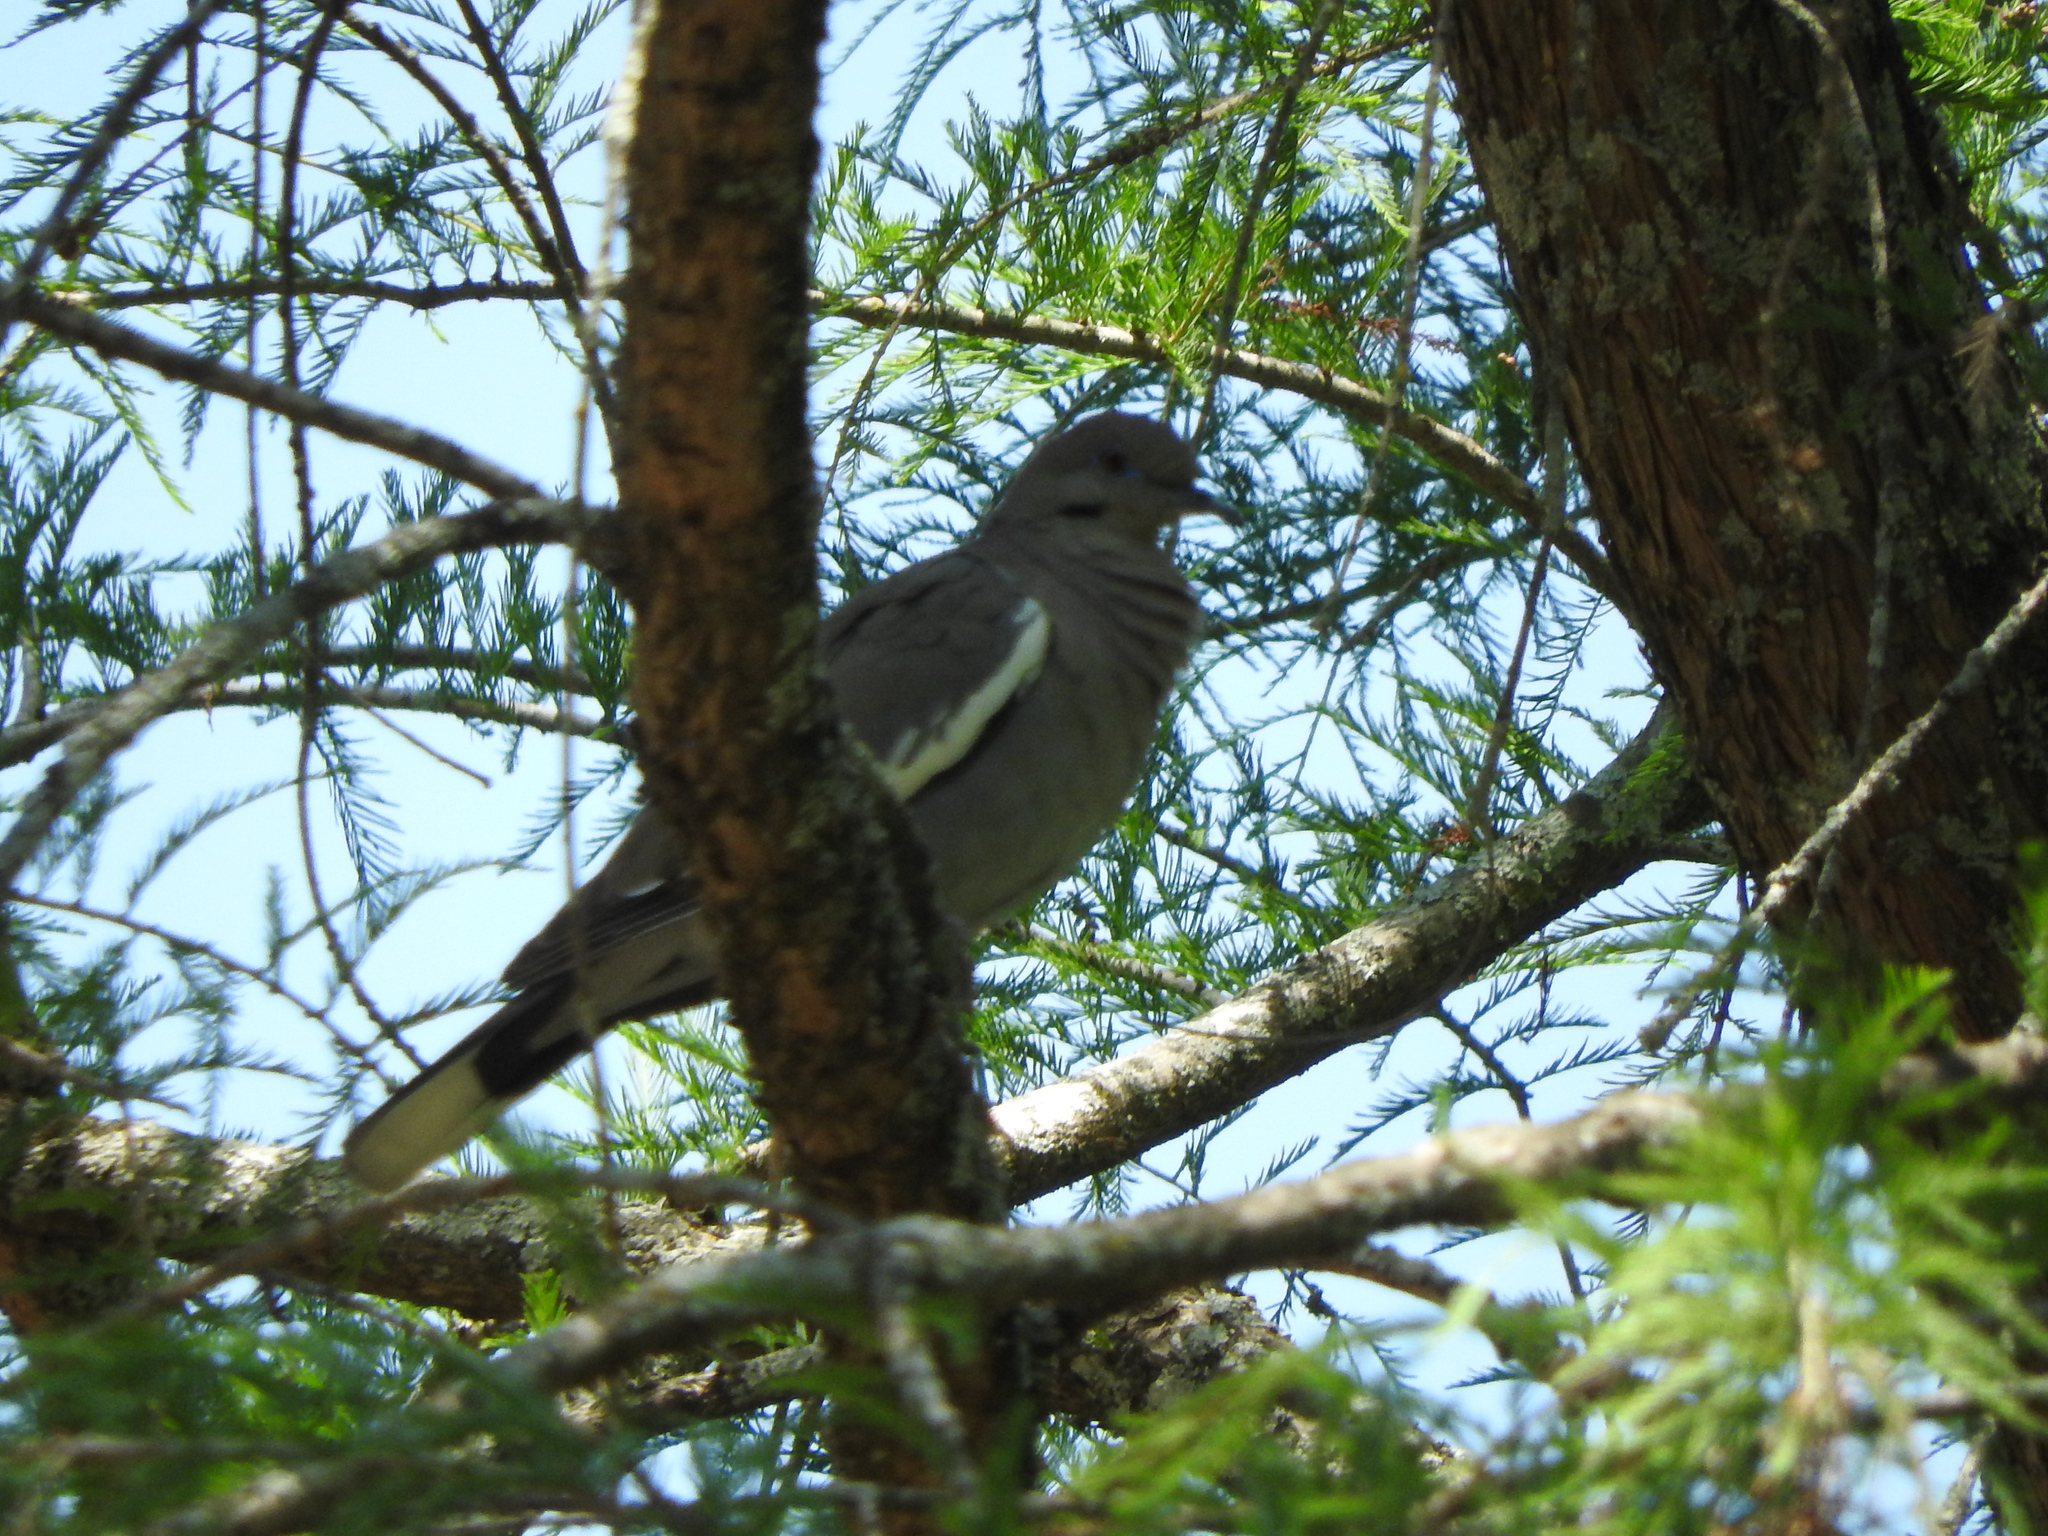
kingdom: Animalia
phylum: Chordata
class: Aves
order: Columbiformes
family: Columbidae
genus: Zenaida
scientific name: Zenaida asiatica
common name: White-winged dove
